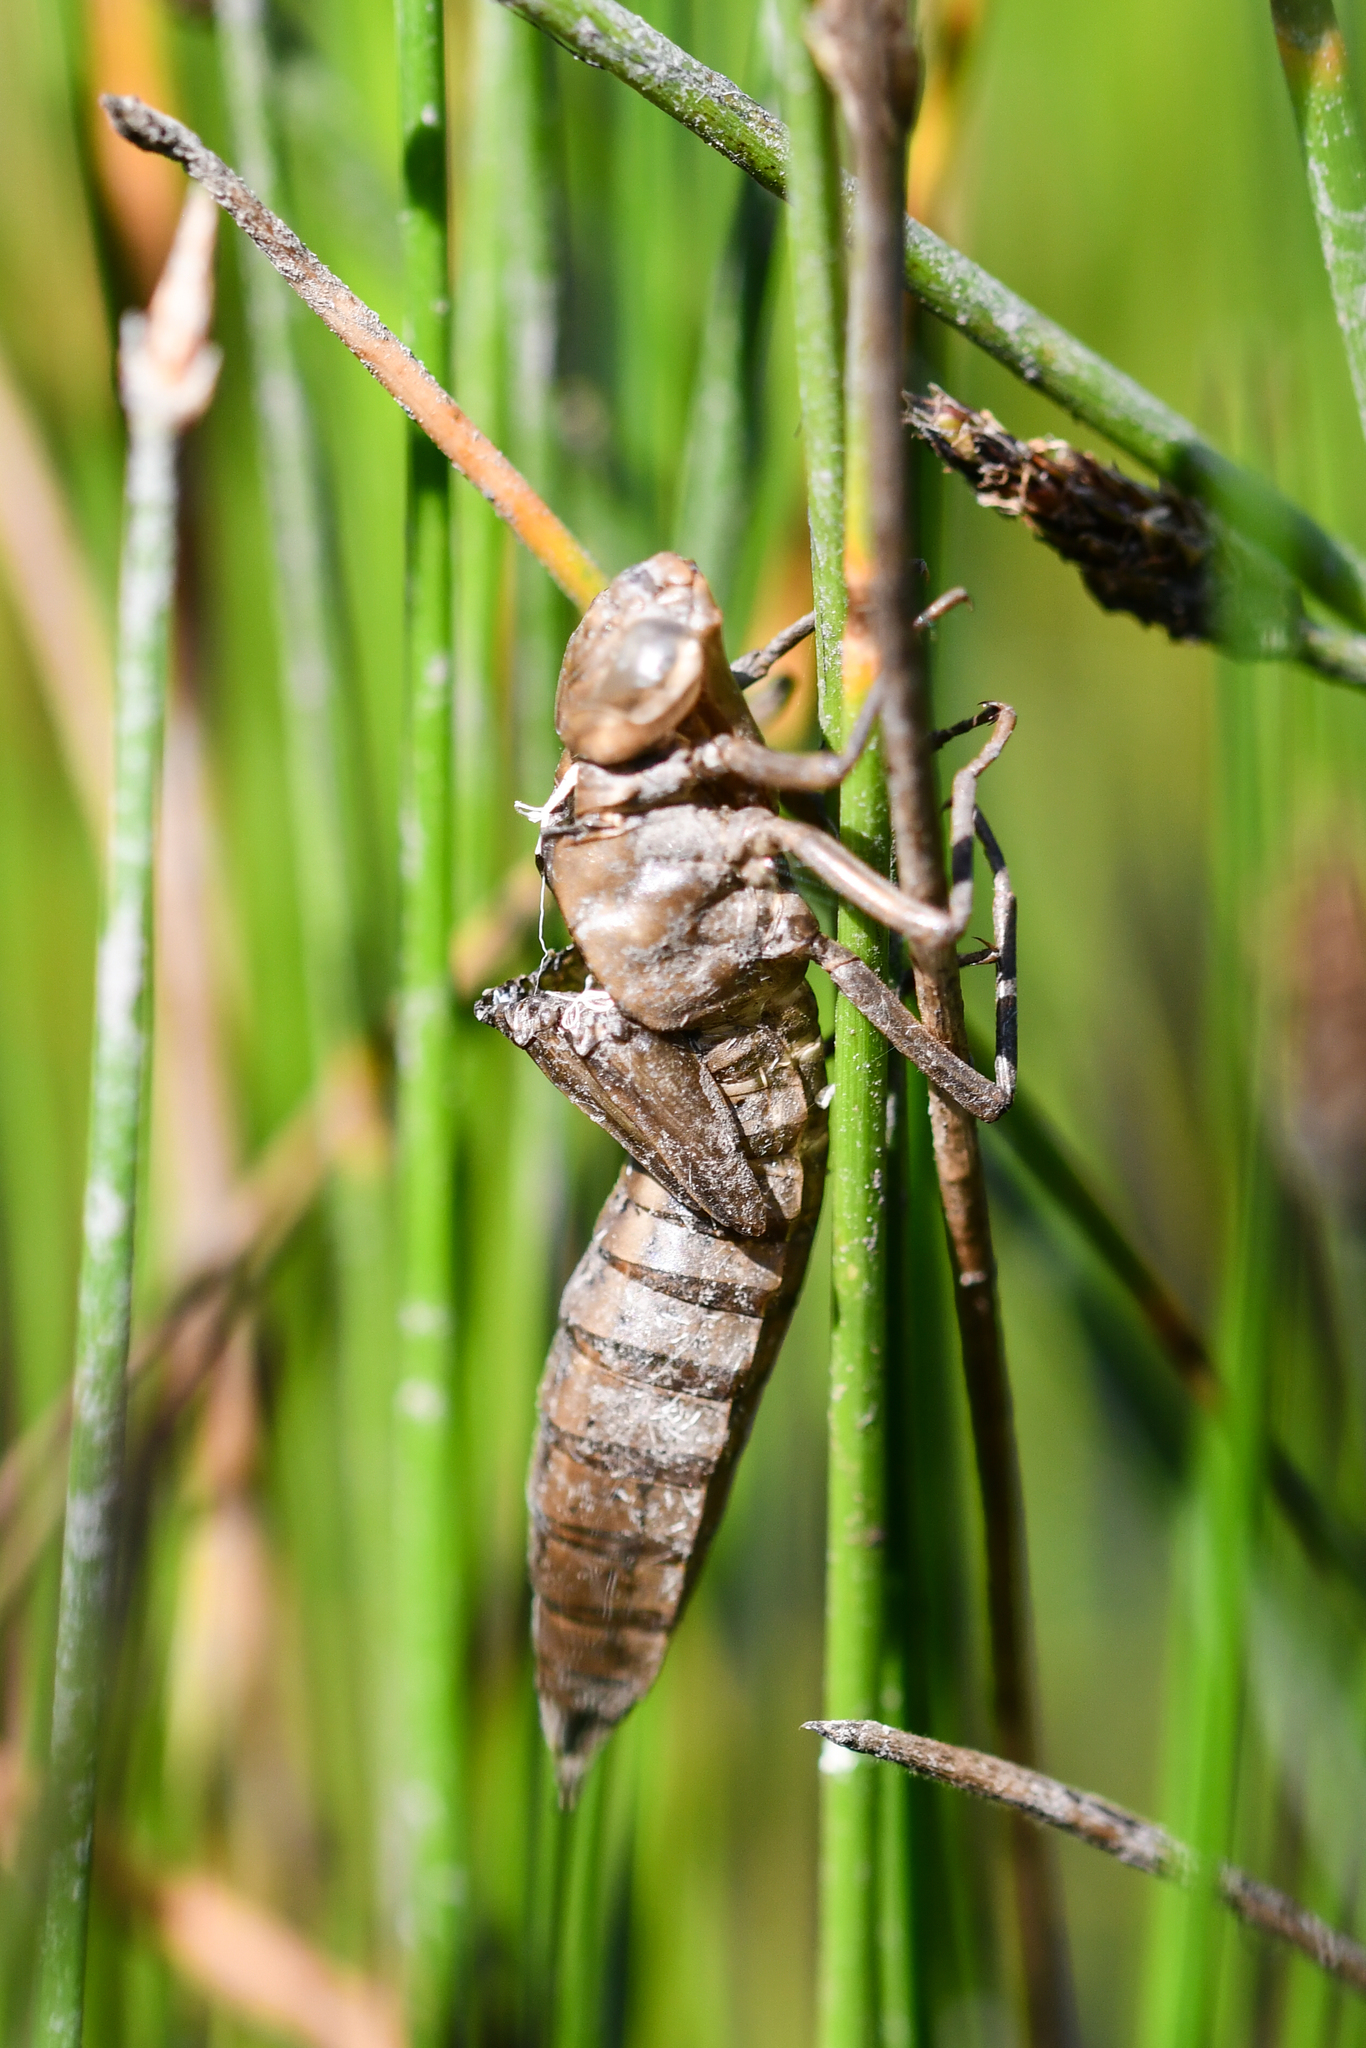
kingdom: Animalia
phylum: Arthropoda
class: Insecta
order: Odonata
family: Aeshnidae
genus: Anax
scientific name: Anax imperator
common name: Emperor dragonfly
